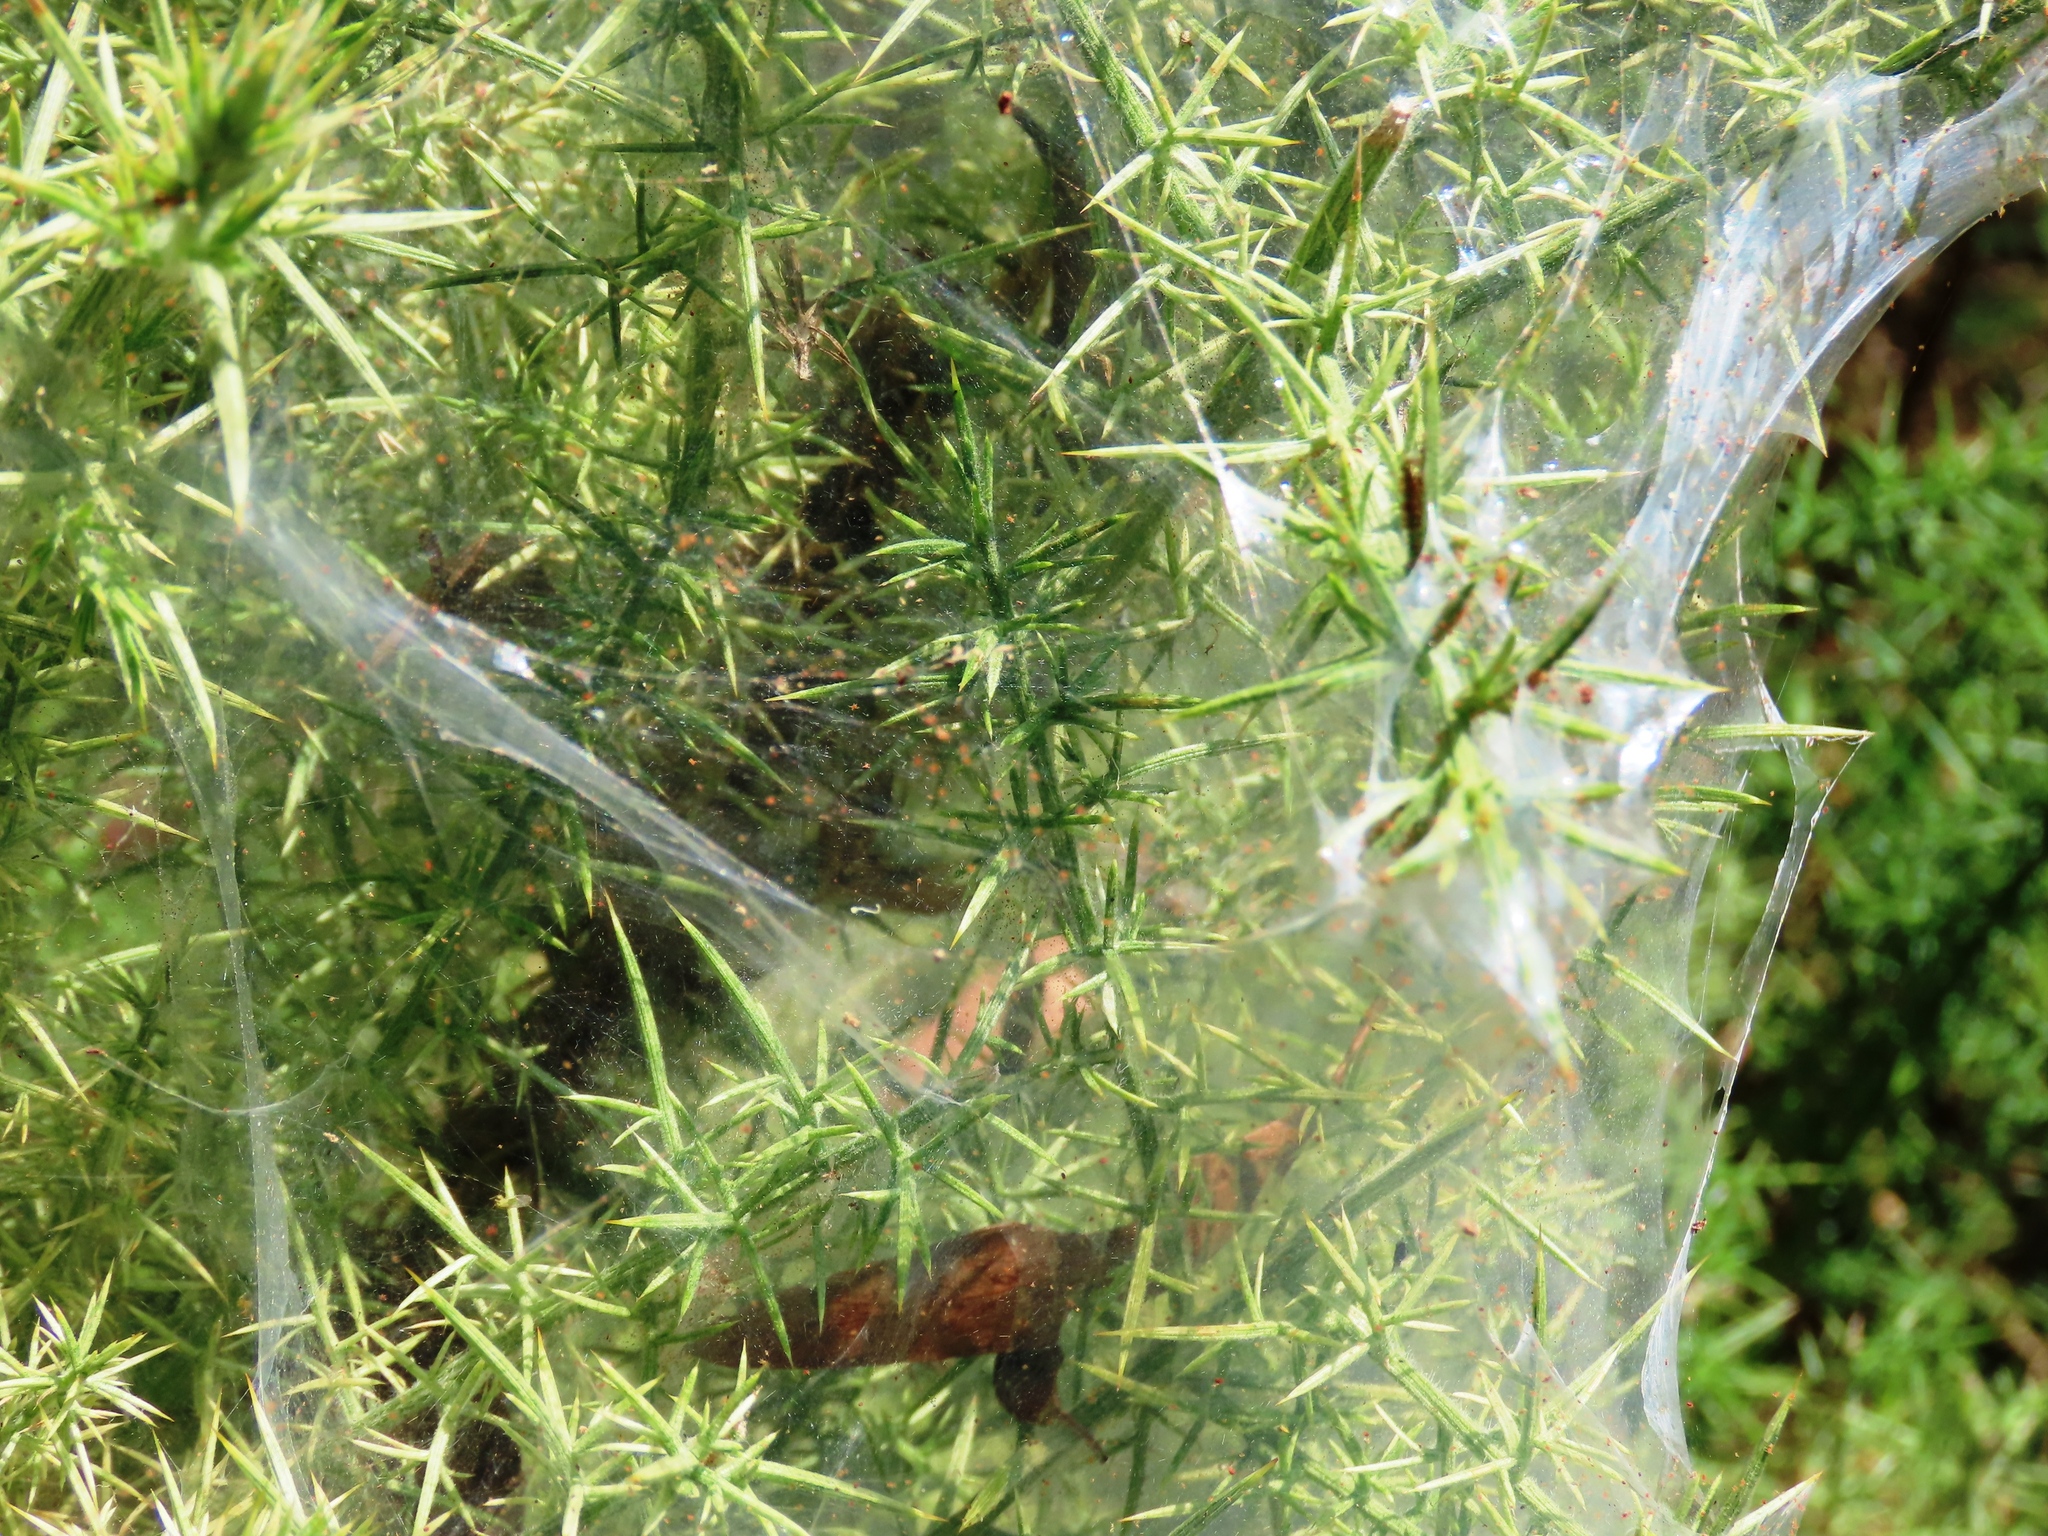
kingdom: Animalia
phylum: Arthropoda
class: Arachnida
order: Trombidiformes
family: Tetranychidae
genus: Tetranychus
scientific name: Tetranychus lintearius
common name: Gorse spider mite
